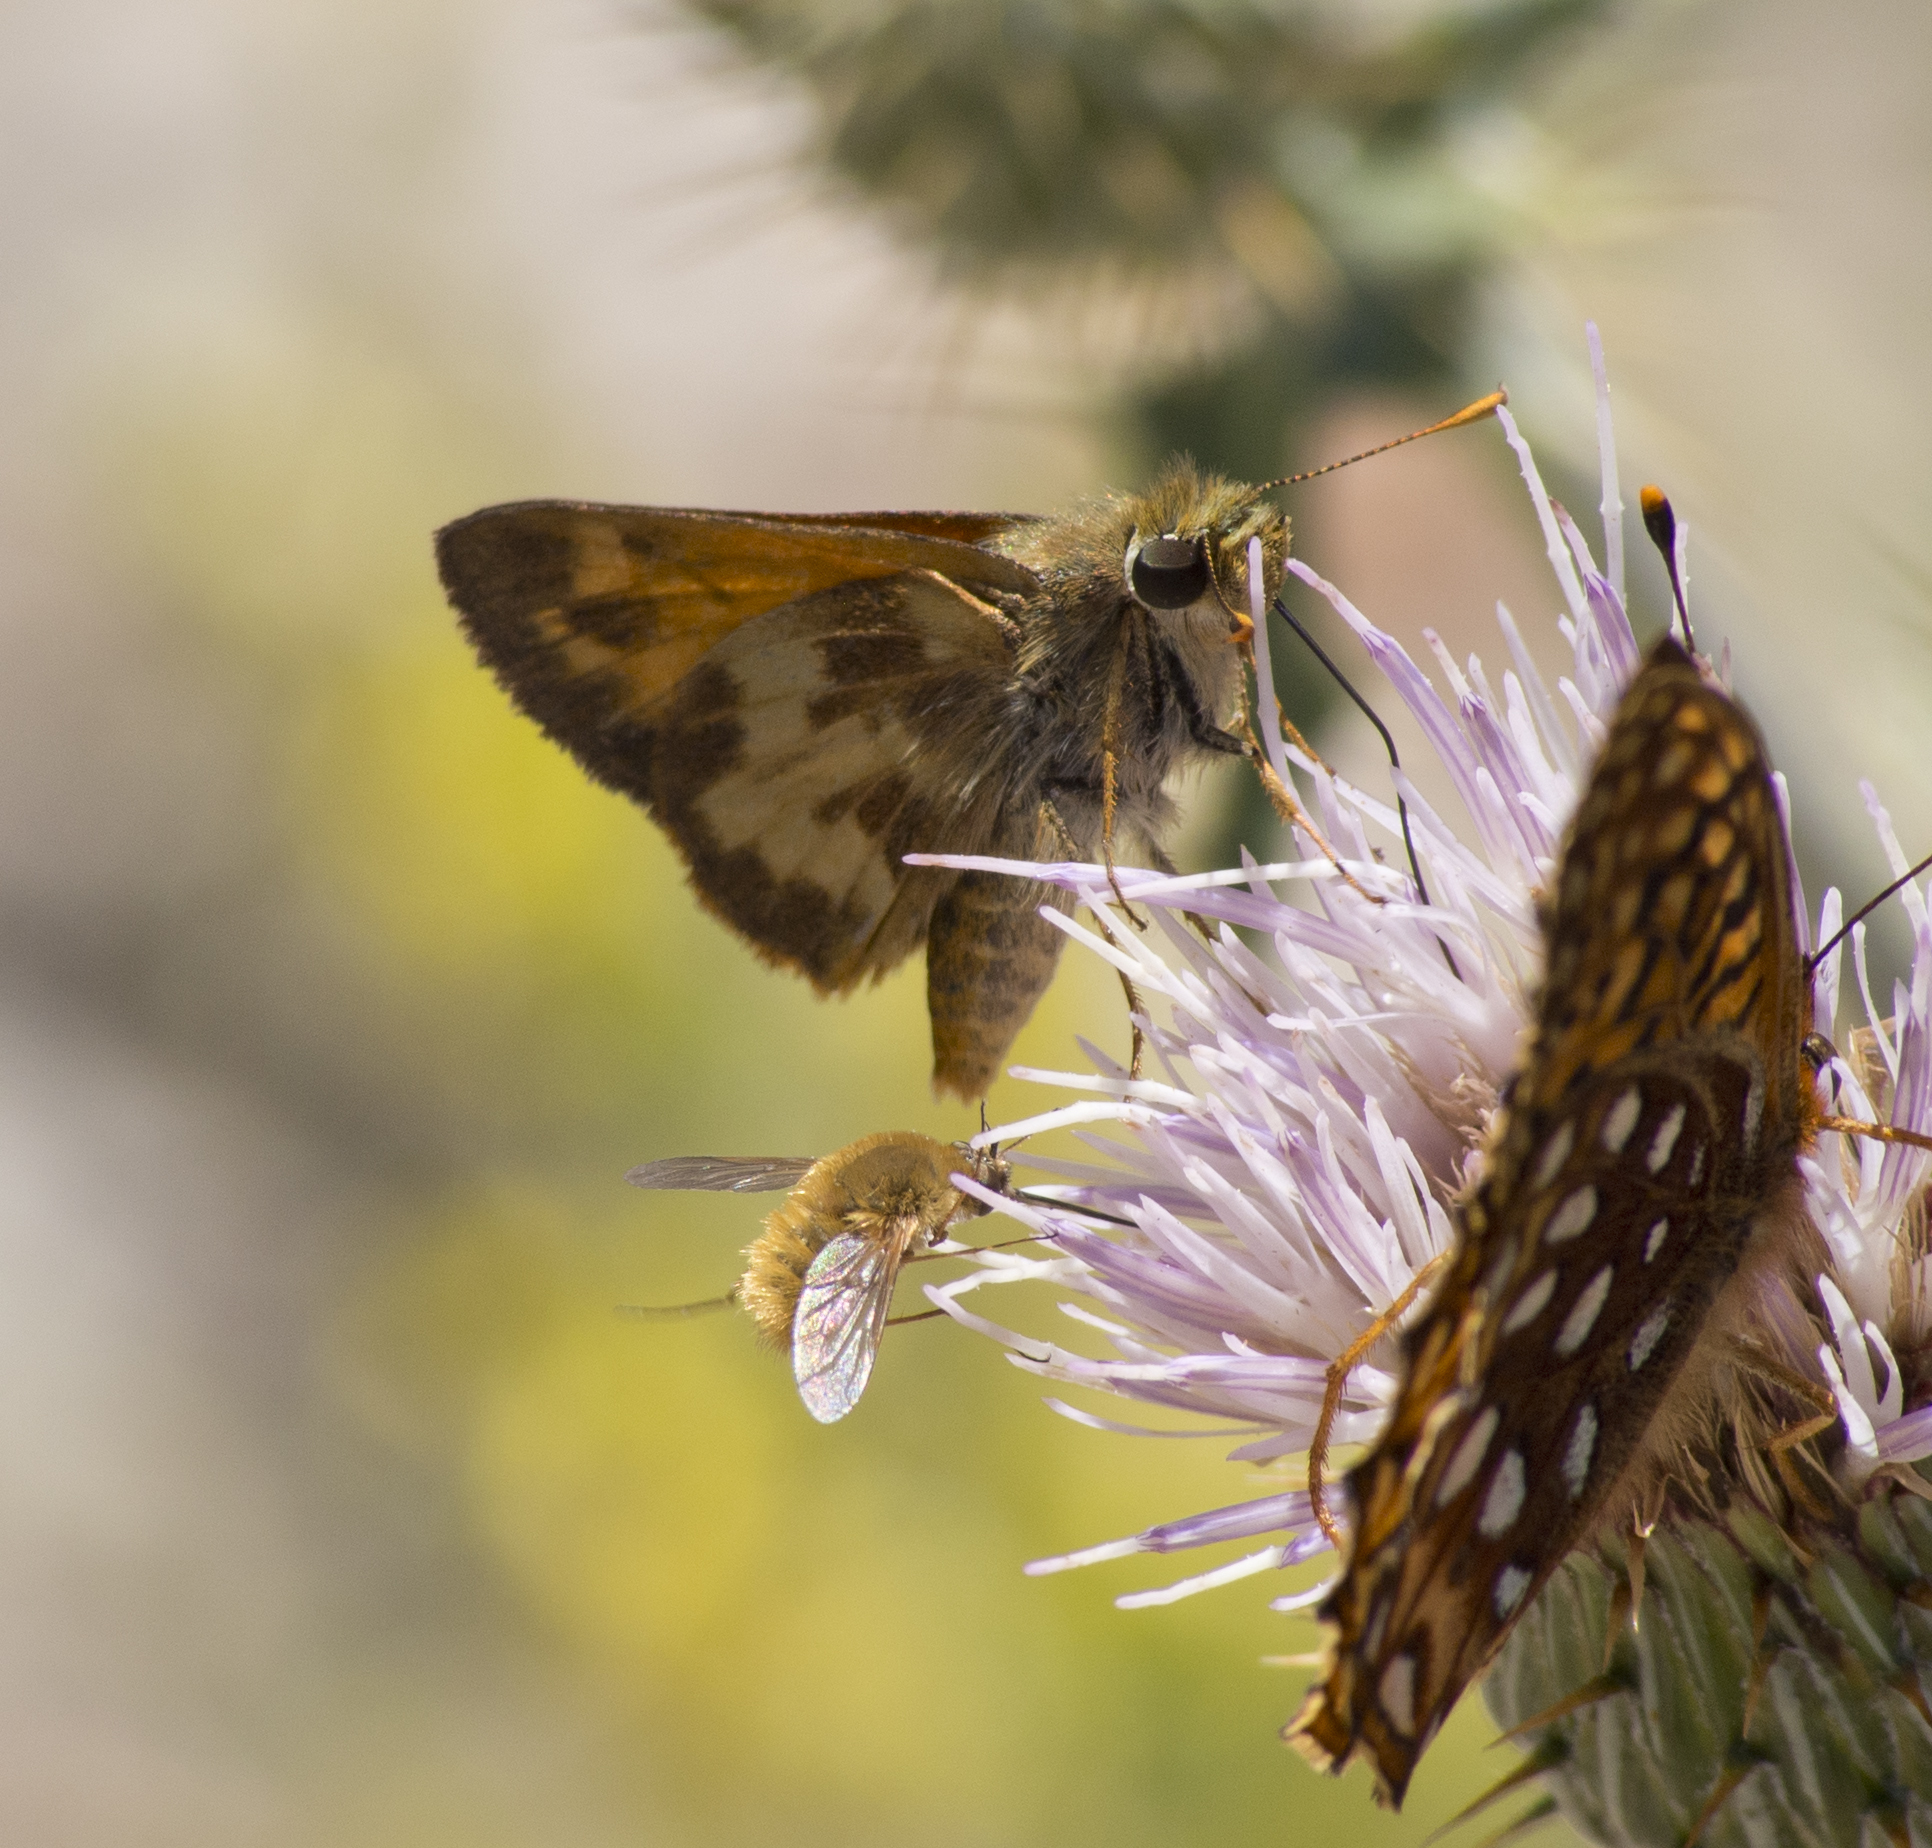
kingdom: Animalia
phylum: Arthropoda
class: Insecta
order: Lepidoptera
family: Hesperiidae
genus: Lon
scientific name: Lon taxiles
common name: Taxiles skipper
